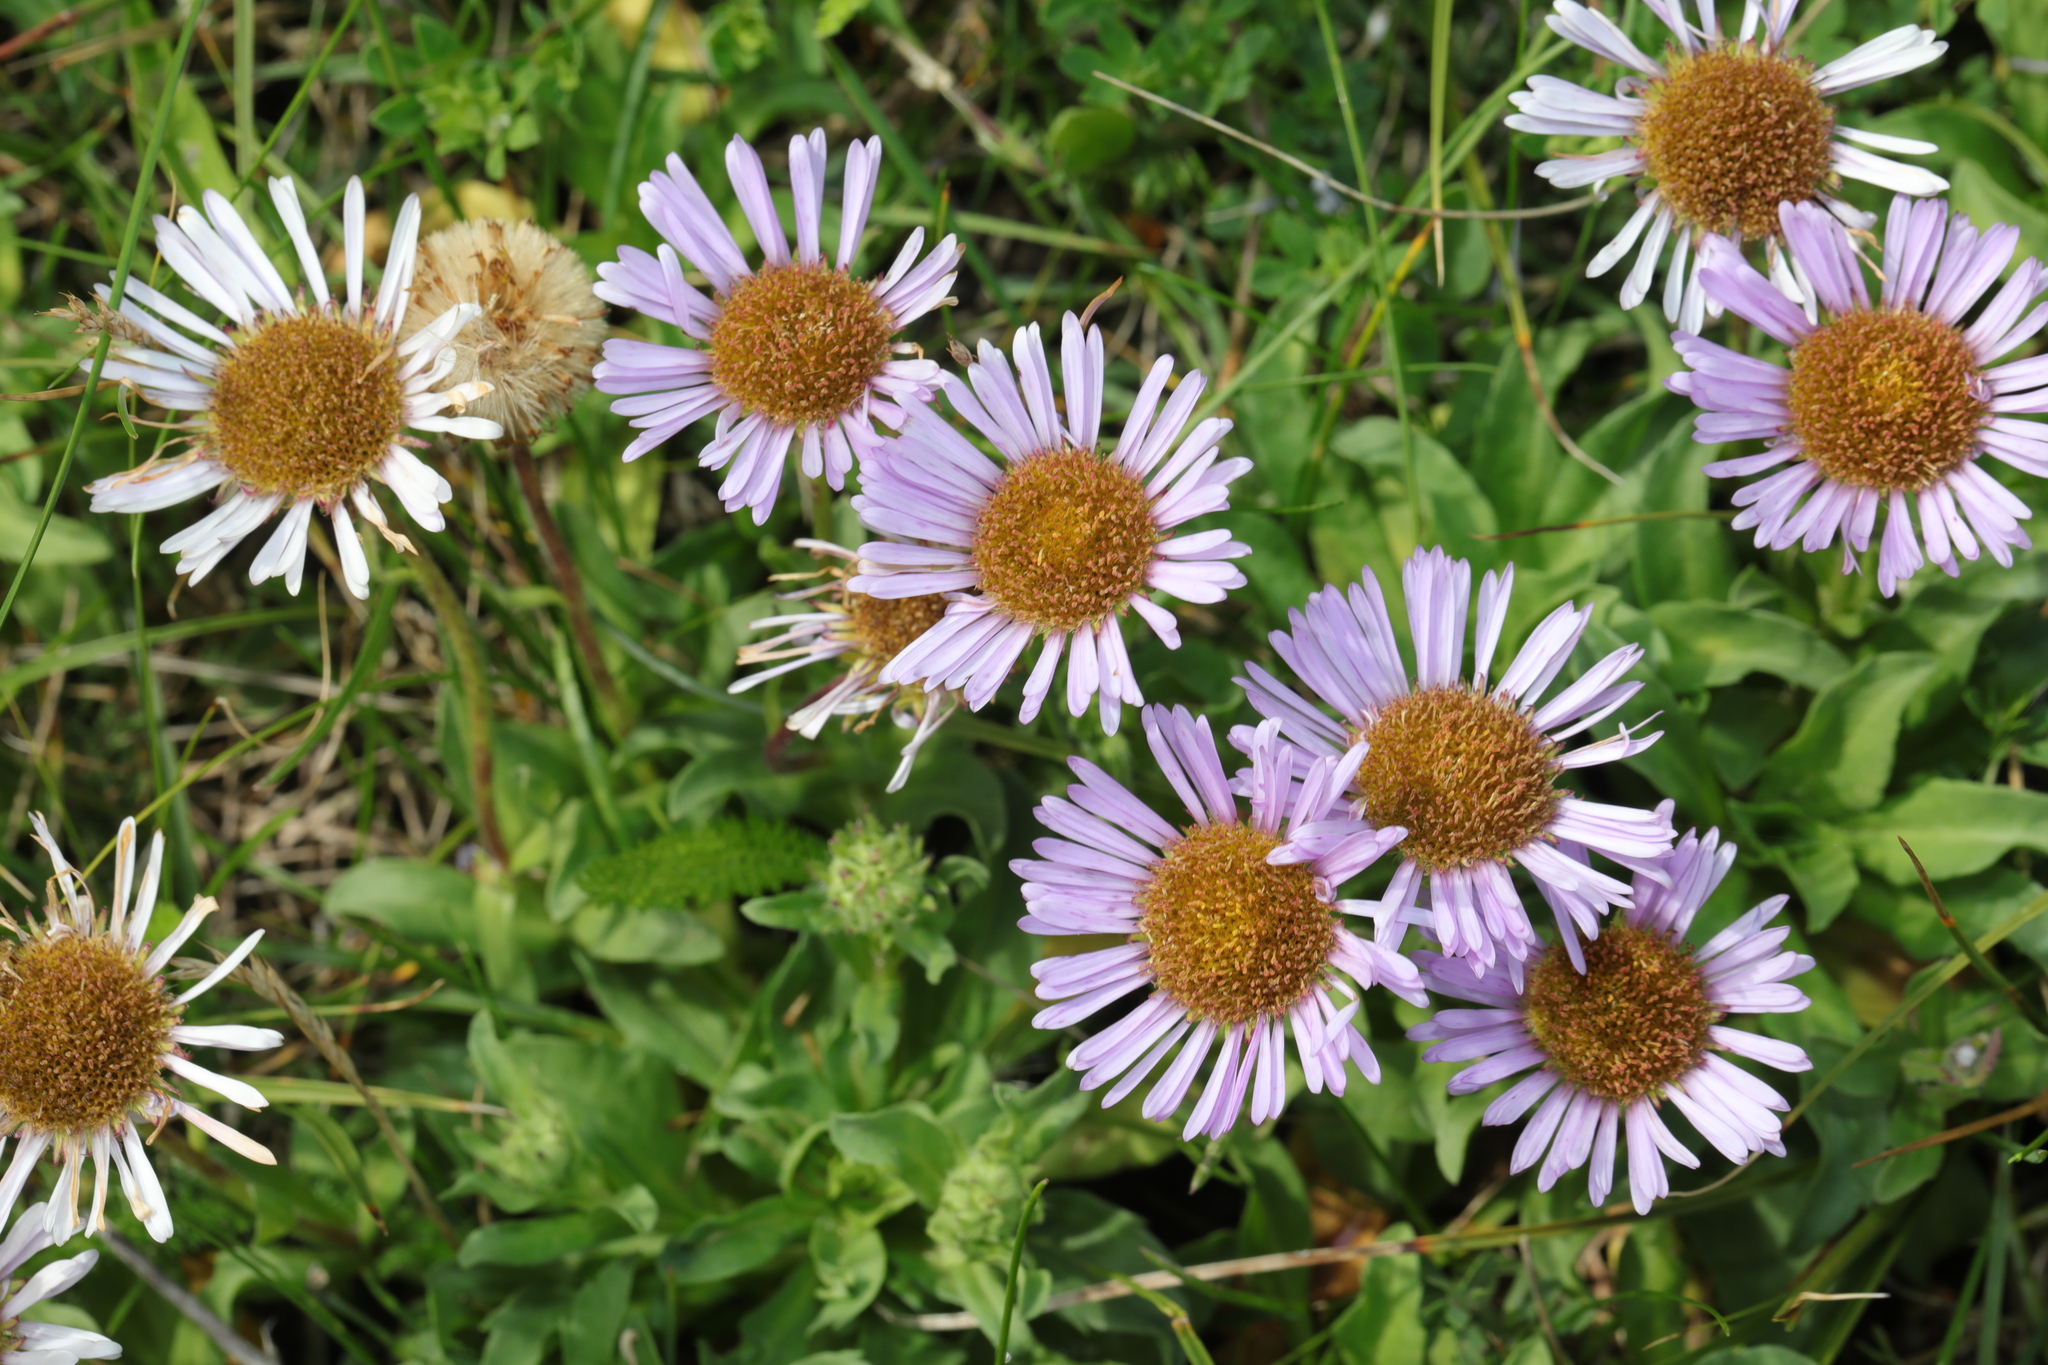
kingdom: Plantae
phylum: Tracheophyta
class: Magnoliopsida
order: Asterales
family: Asteraceae
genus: Erigeron
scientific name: Erigeron glaucus
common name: Seaside daisy
